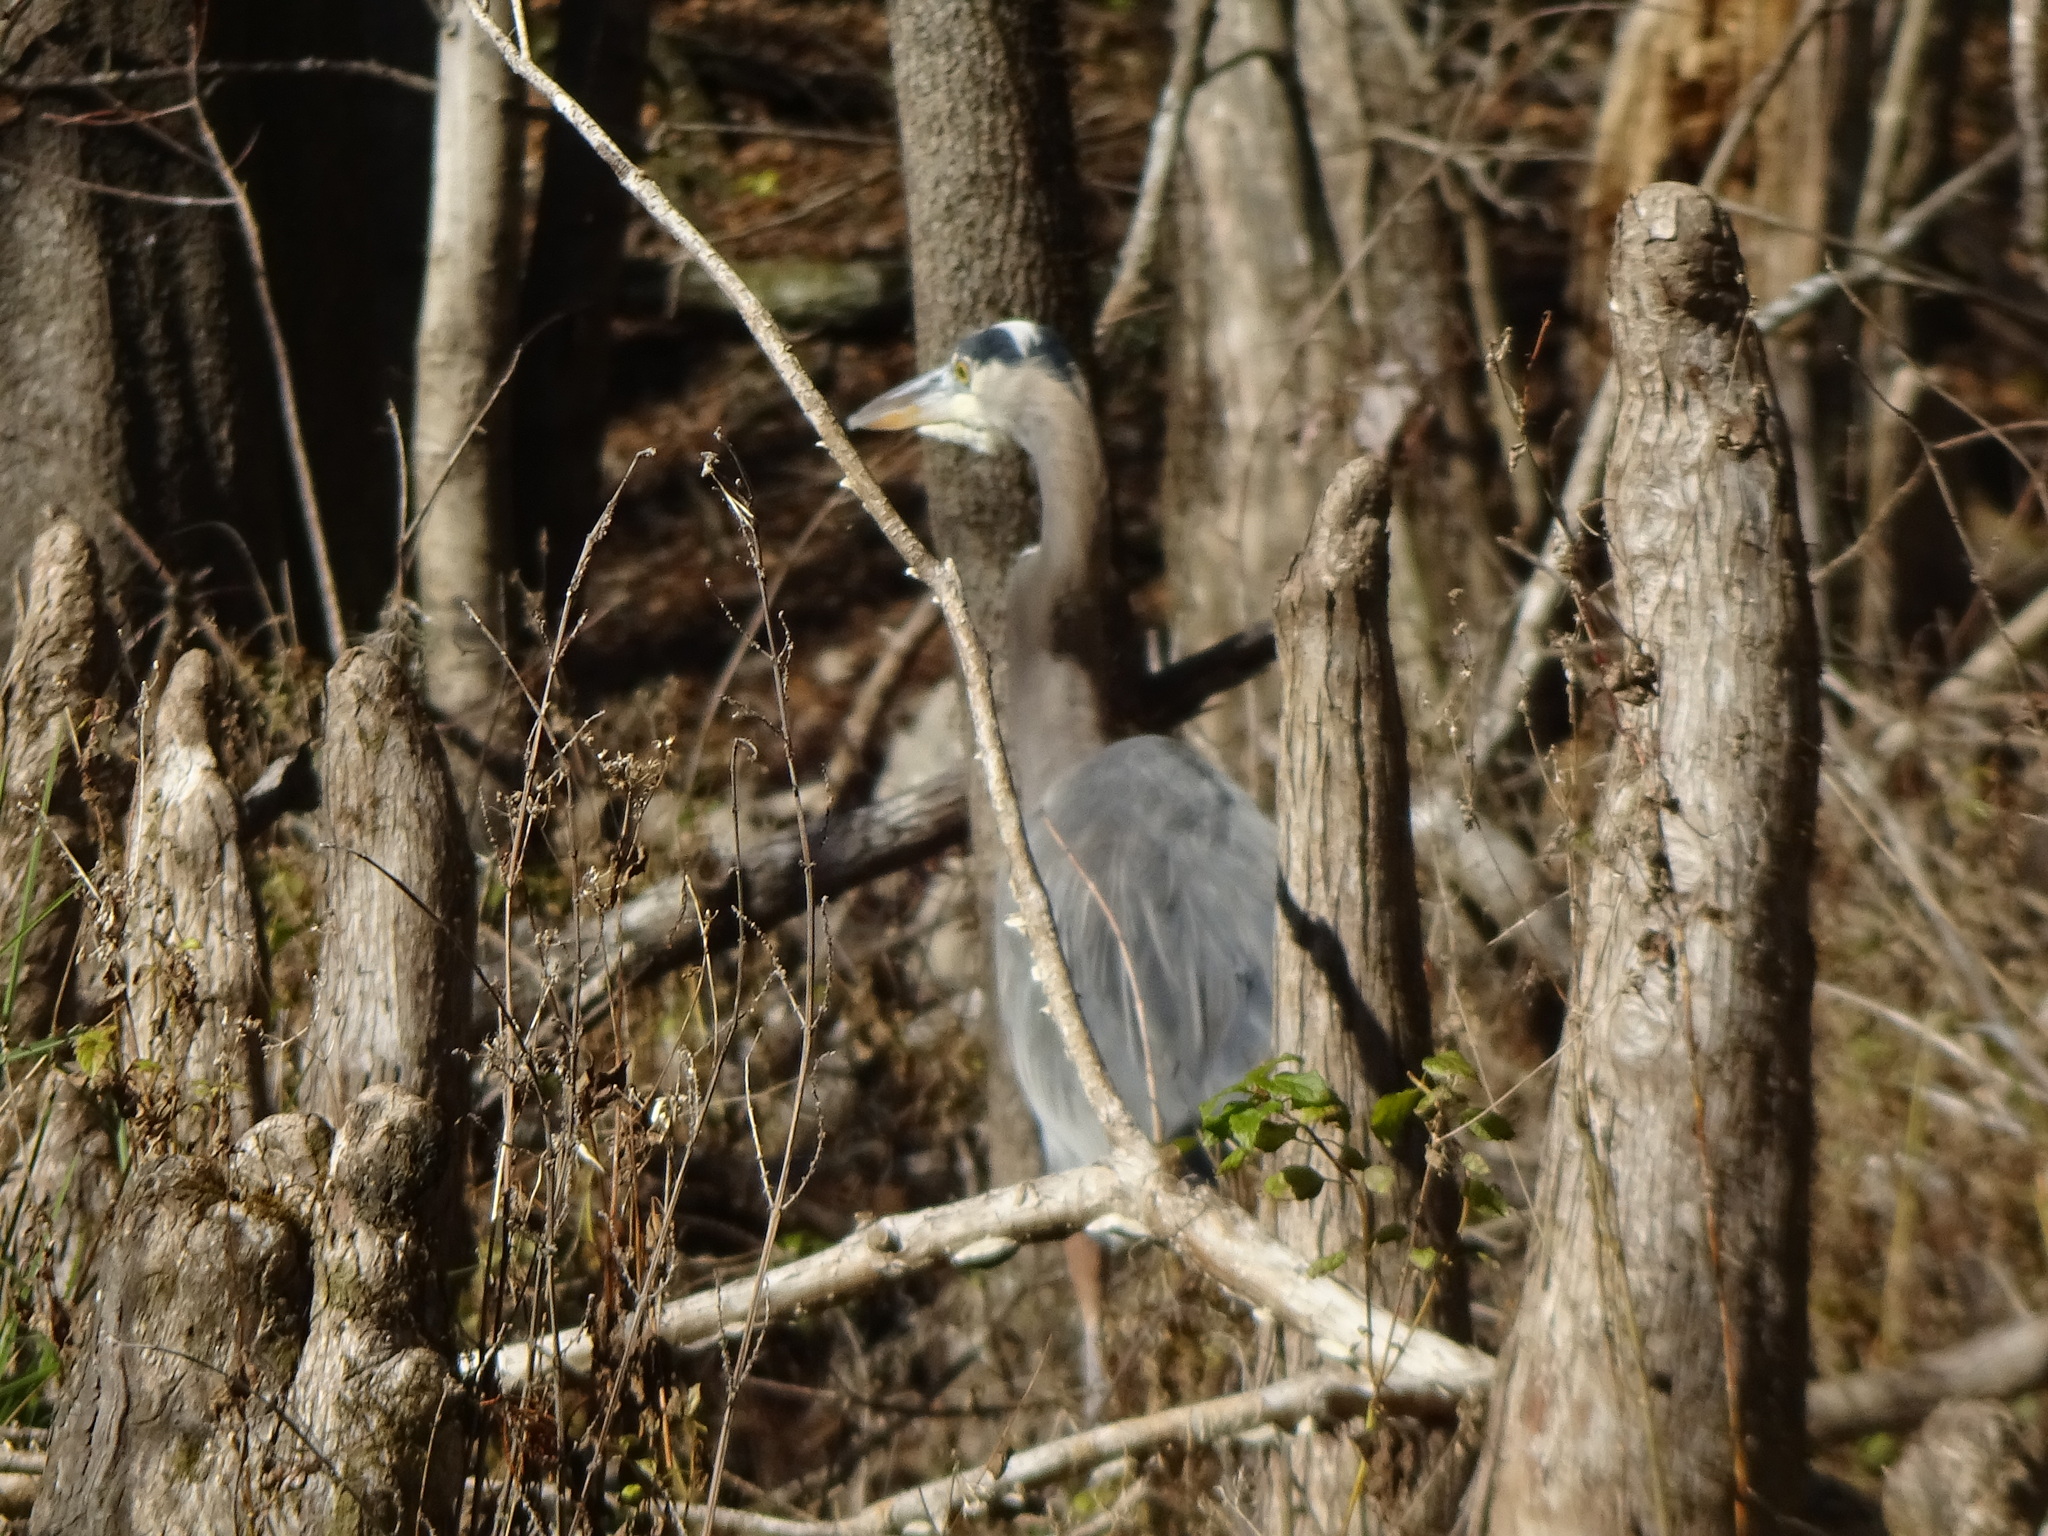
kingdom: Animalia
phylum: Chordata
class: Aves
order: Pelecaniformes
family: Ardeidae
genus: Ardea
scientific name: Ardea herodias
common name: Great blue heron
